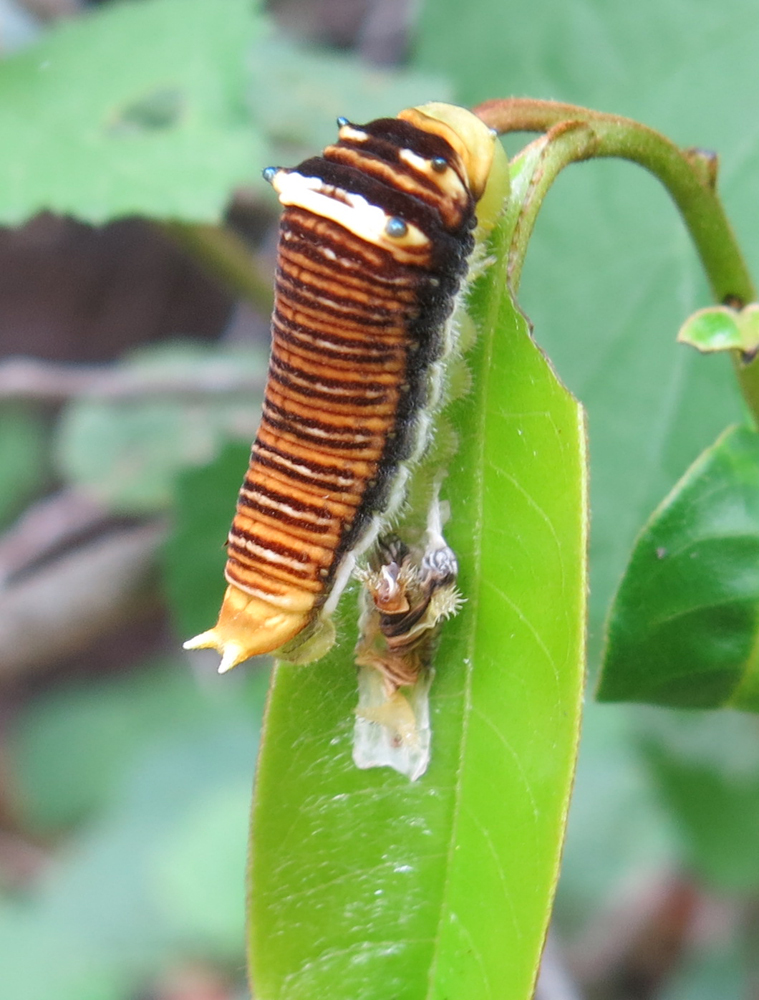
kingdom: Animalia
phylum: Arthropoda
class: Insecta
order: Lepidoptera
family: Papilionidae
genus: Graphium
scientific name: Graphium antheus
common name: Large striped swordtail
